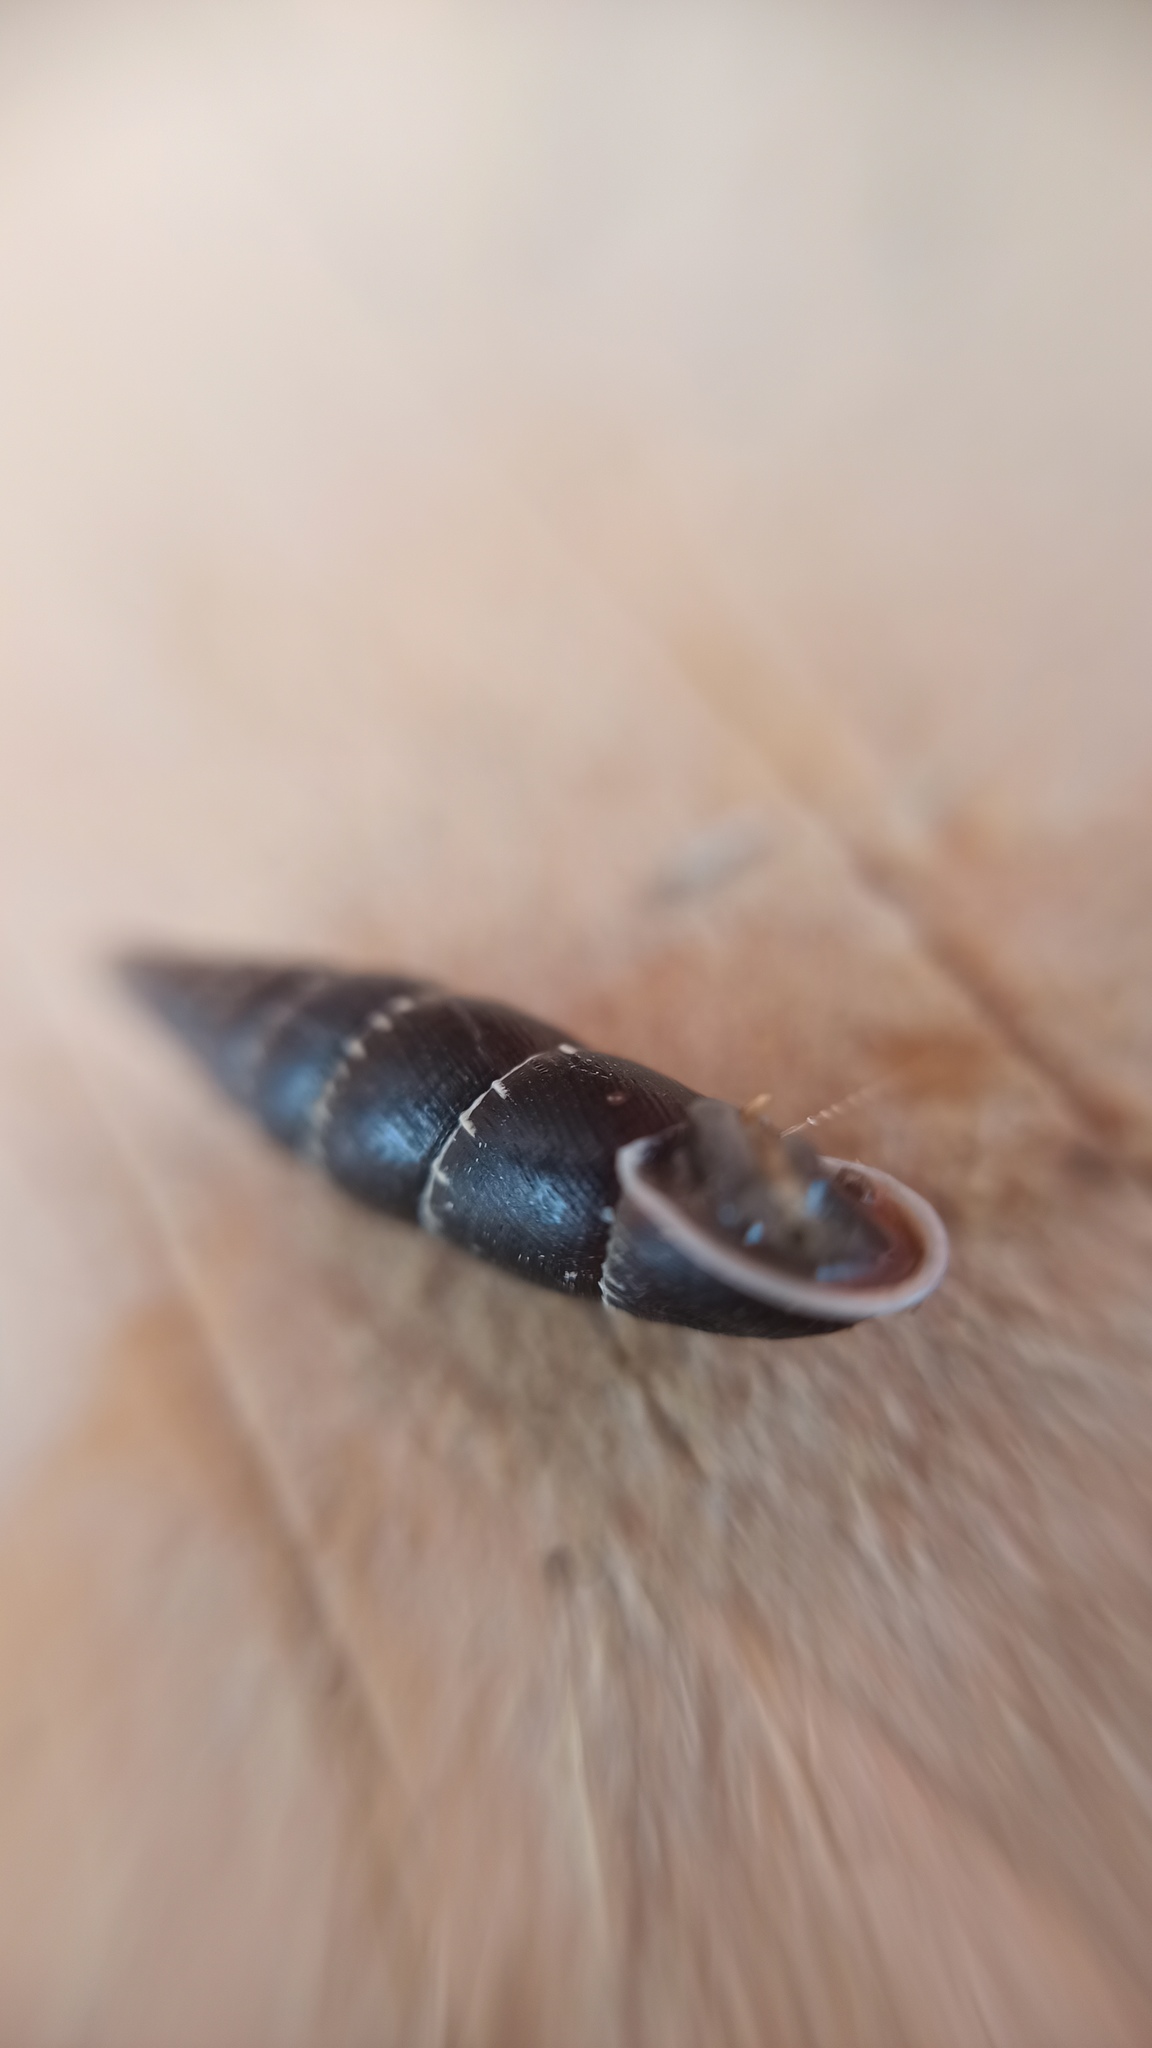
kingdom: Animalia
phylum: Mollusca
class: Gastropoda
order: Stylommatophora
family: Clausiliidae
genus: Charpentieria
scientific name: Charpentieria itala
